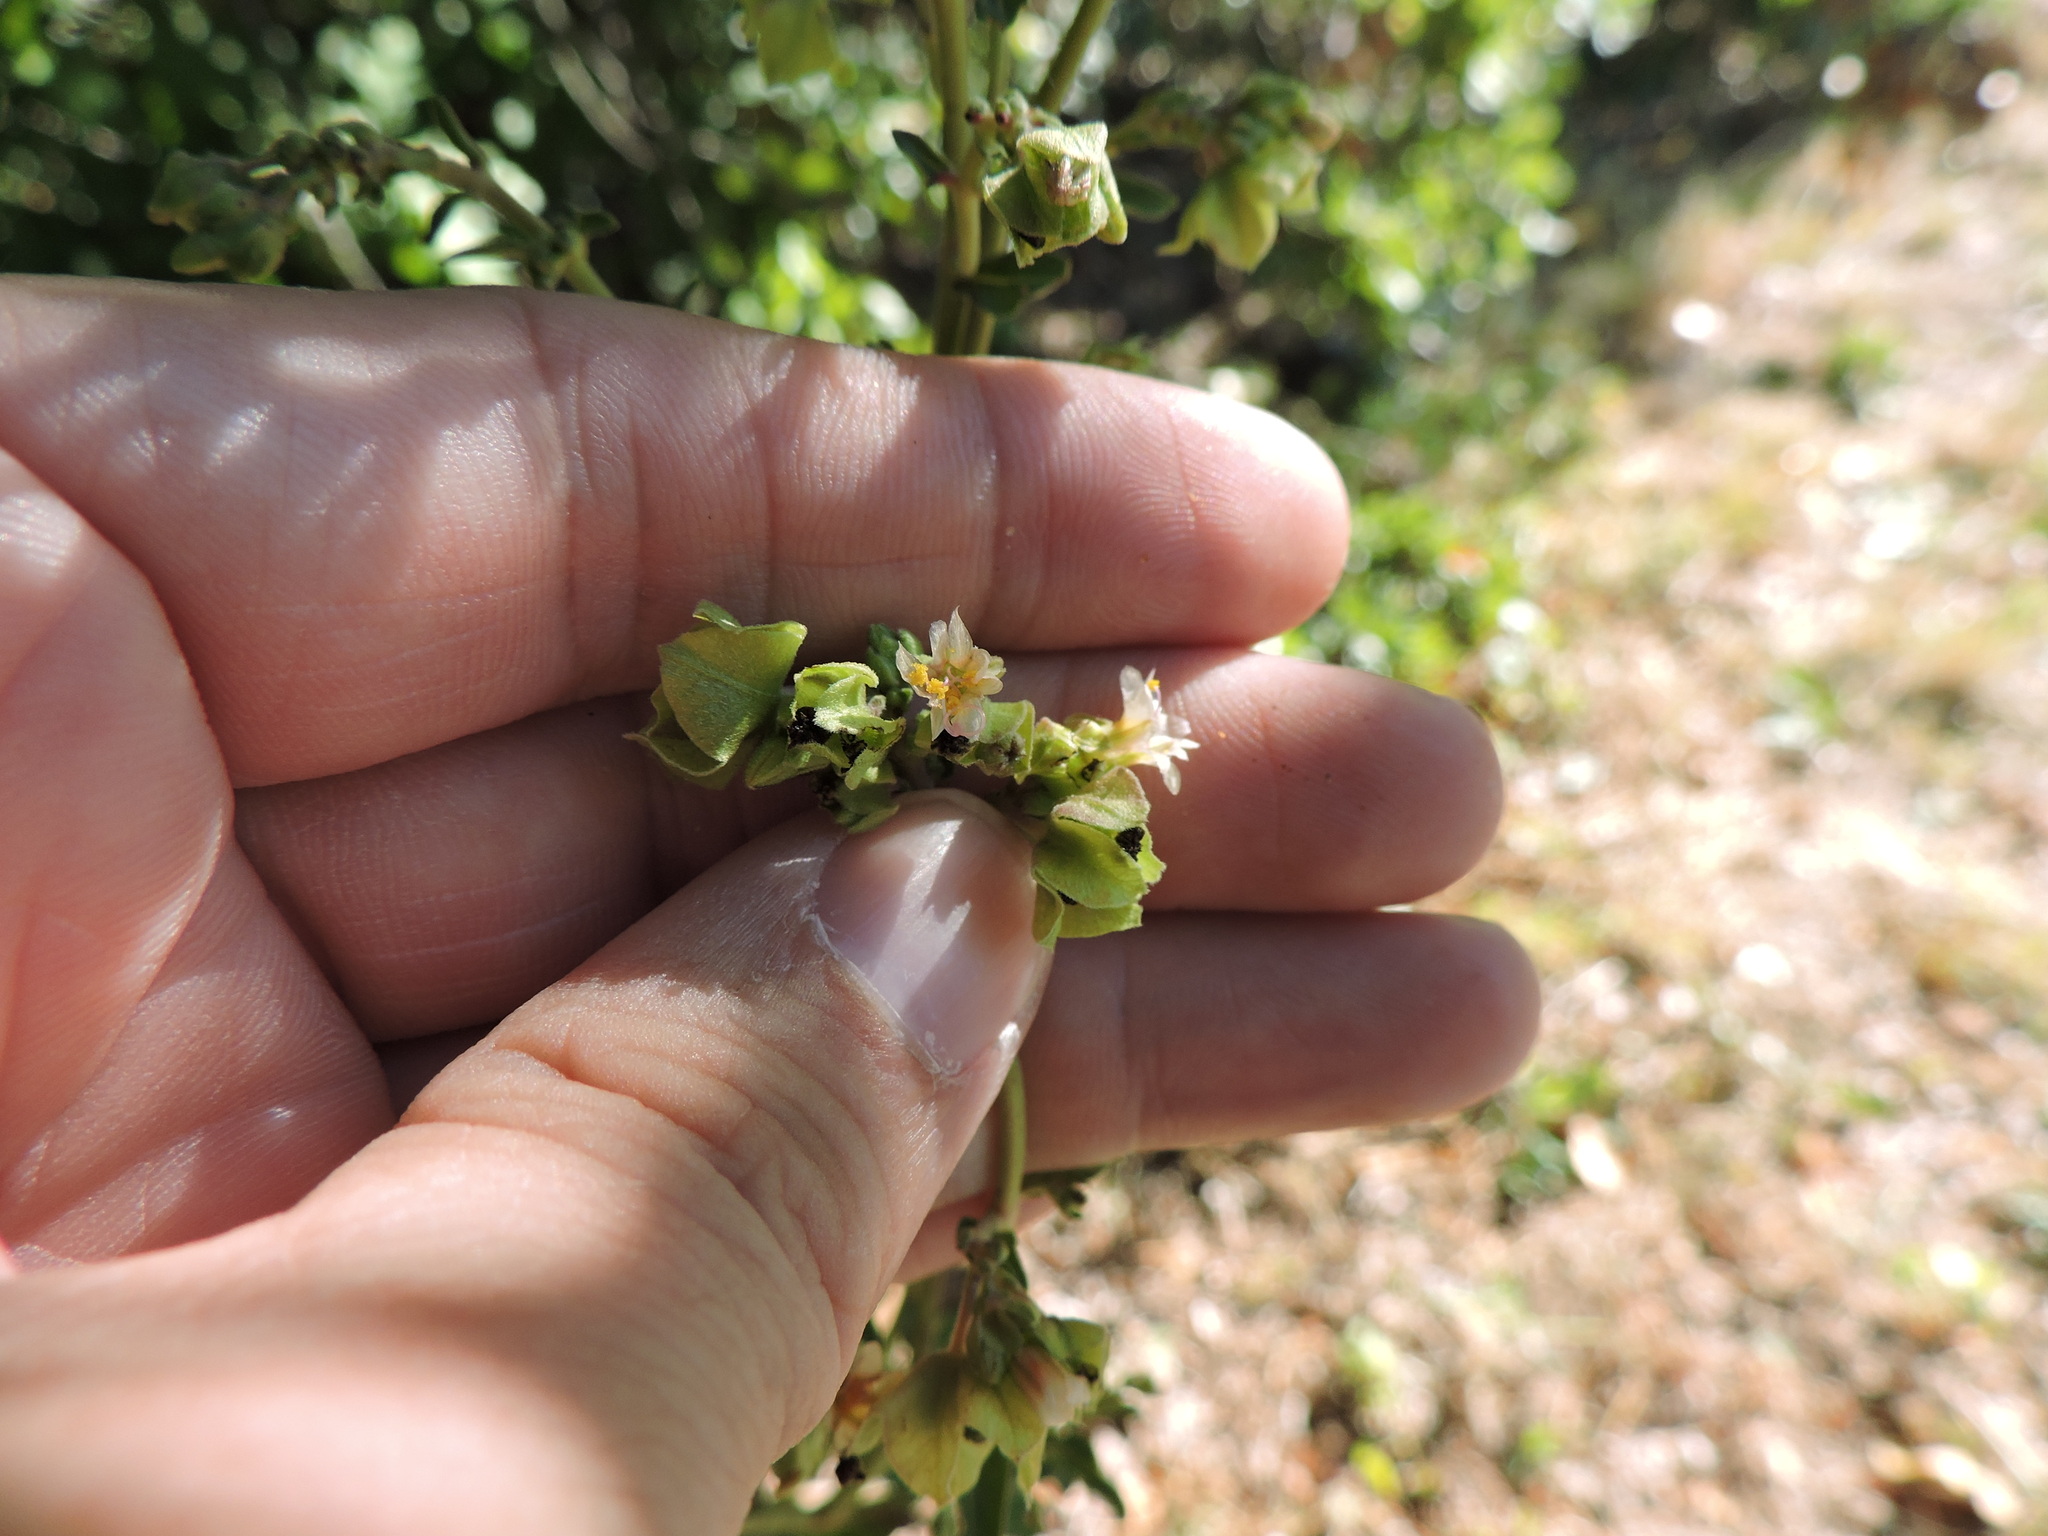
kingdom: Plantae
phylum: Tracheophyta
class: Magnoliopsida
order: Caryophyllales
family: Nyctaginaceae
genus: Mirabilis
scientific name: Mirabilis nyctaginea
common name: Umbrella wort
